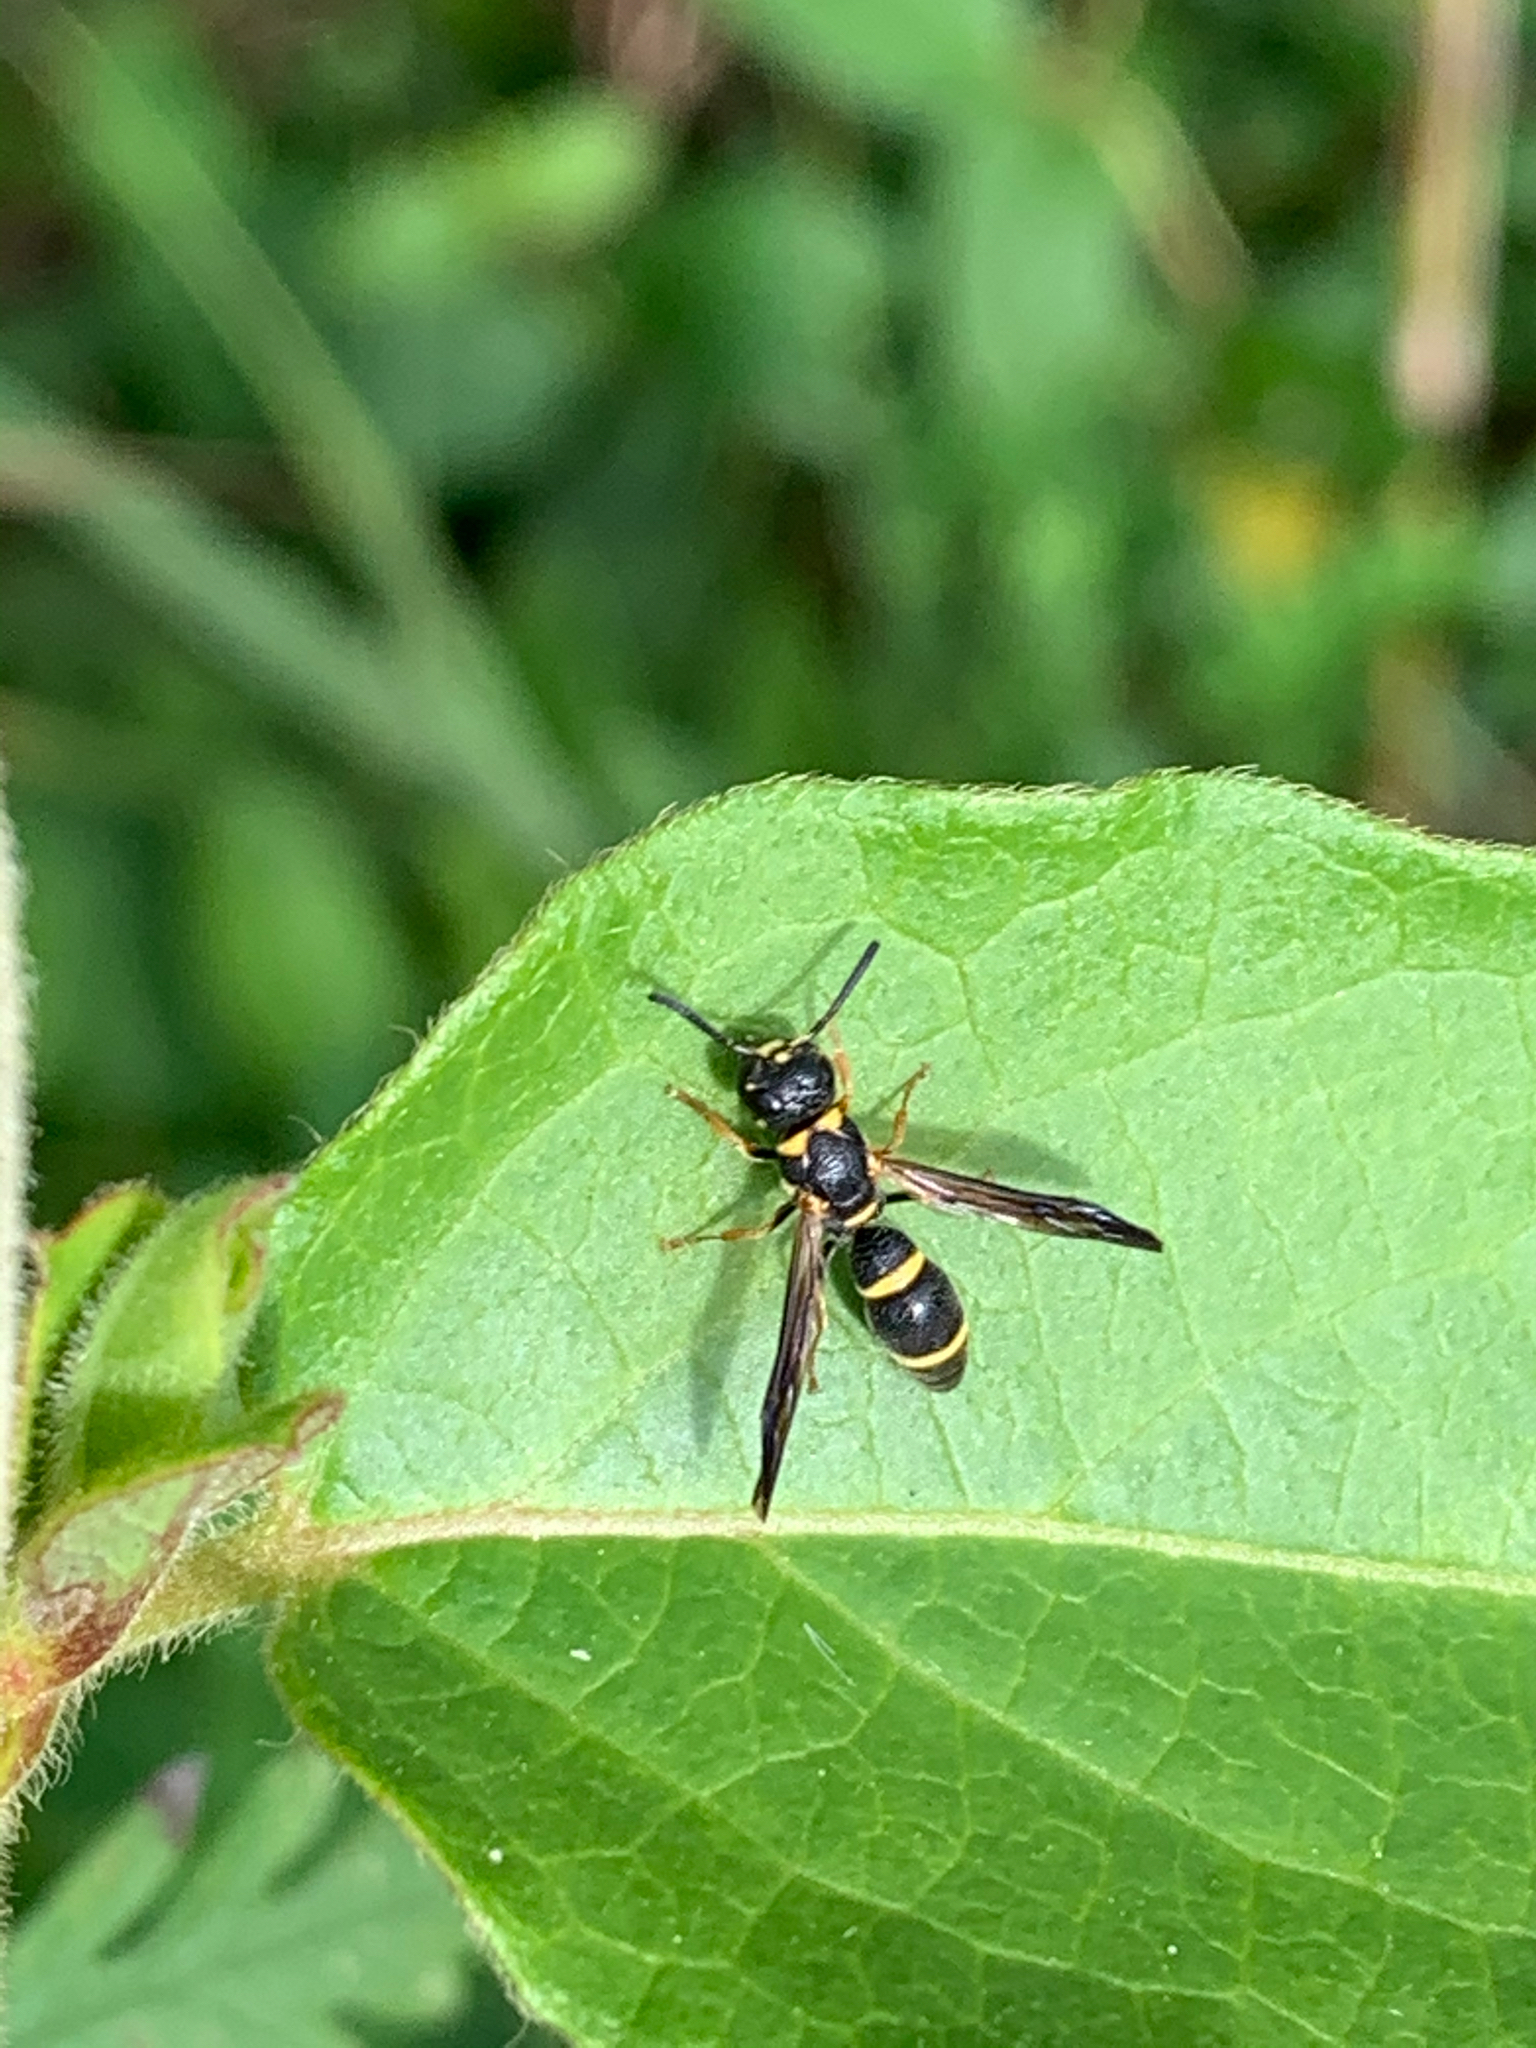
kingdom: Animalia
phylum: Arthropoda
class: Insecta
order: Hymenoptera
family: Eumenidae
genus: Parancistrocerus
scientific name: Parancistrocerus perennis
